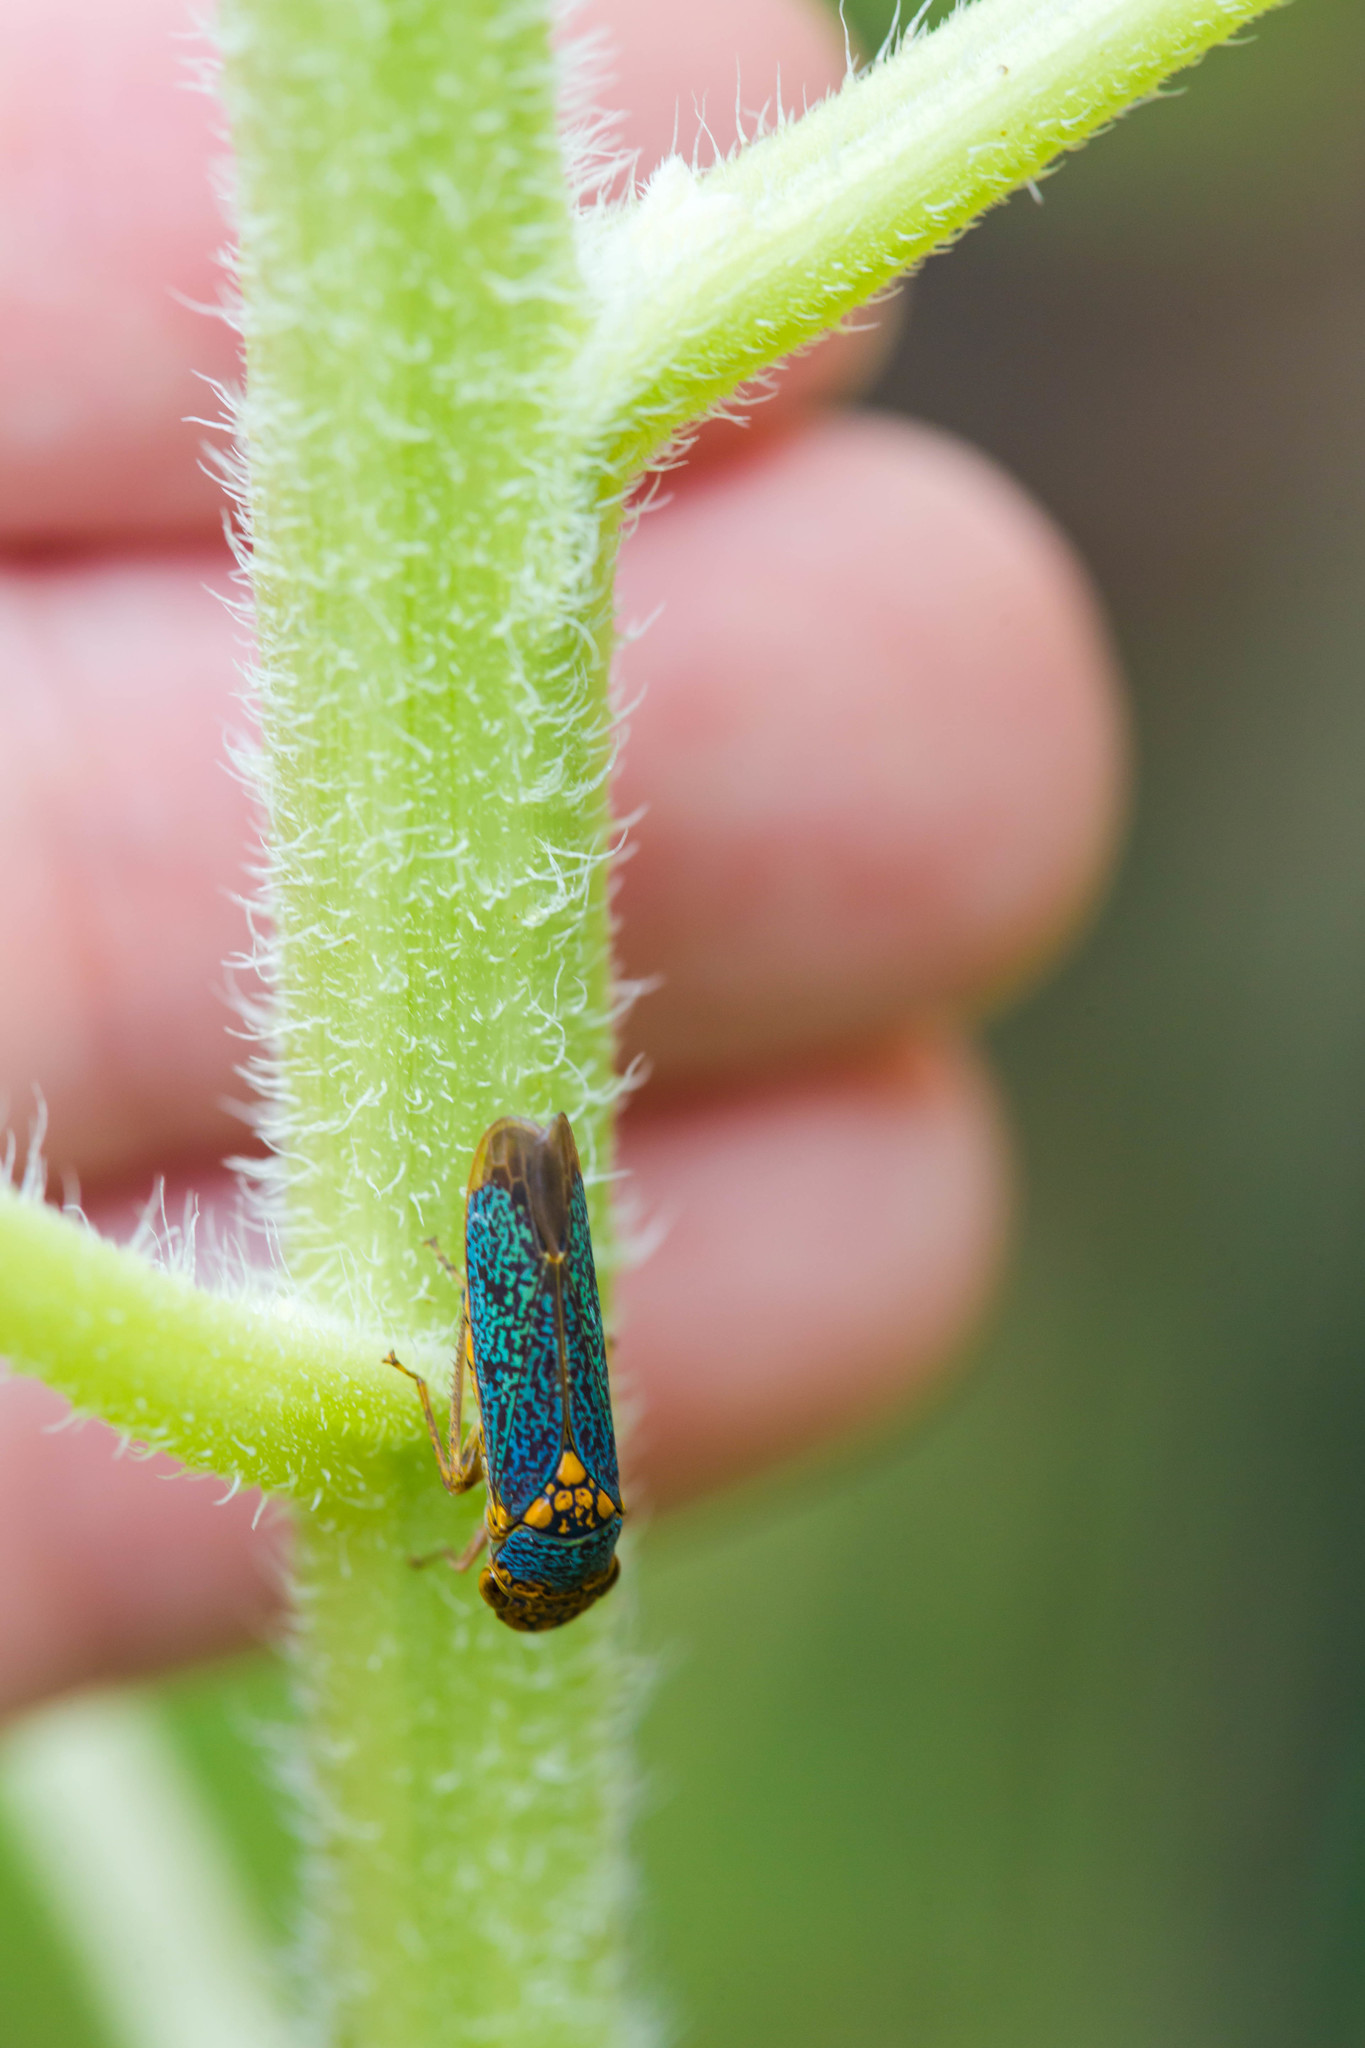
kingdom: Animalia
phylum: Arthropoda
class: Insecta
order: Hemiptera
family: Cicadellidae
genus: Oncometopia
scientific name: Oncometopia orbona
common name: Broad-headed sharpshooter
